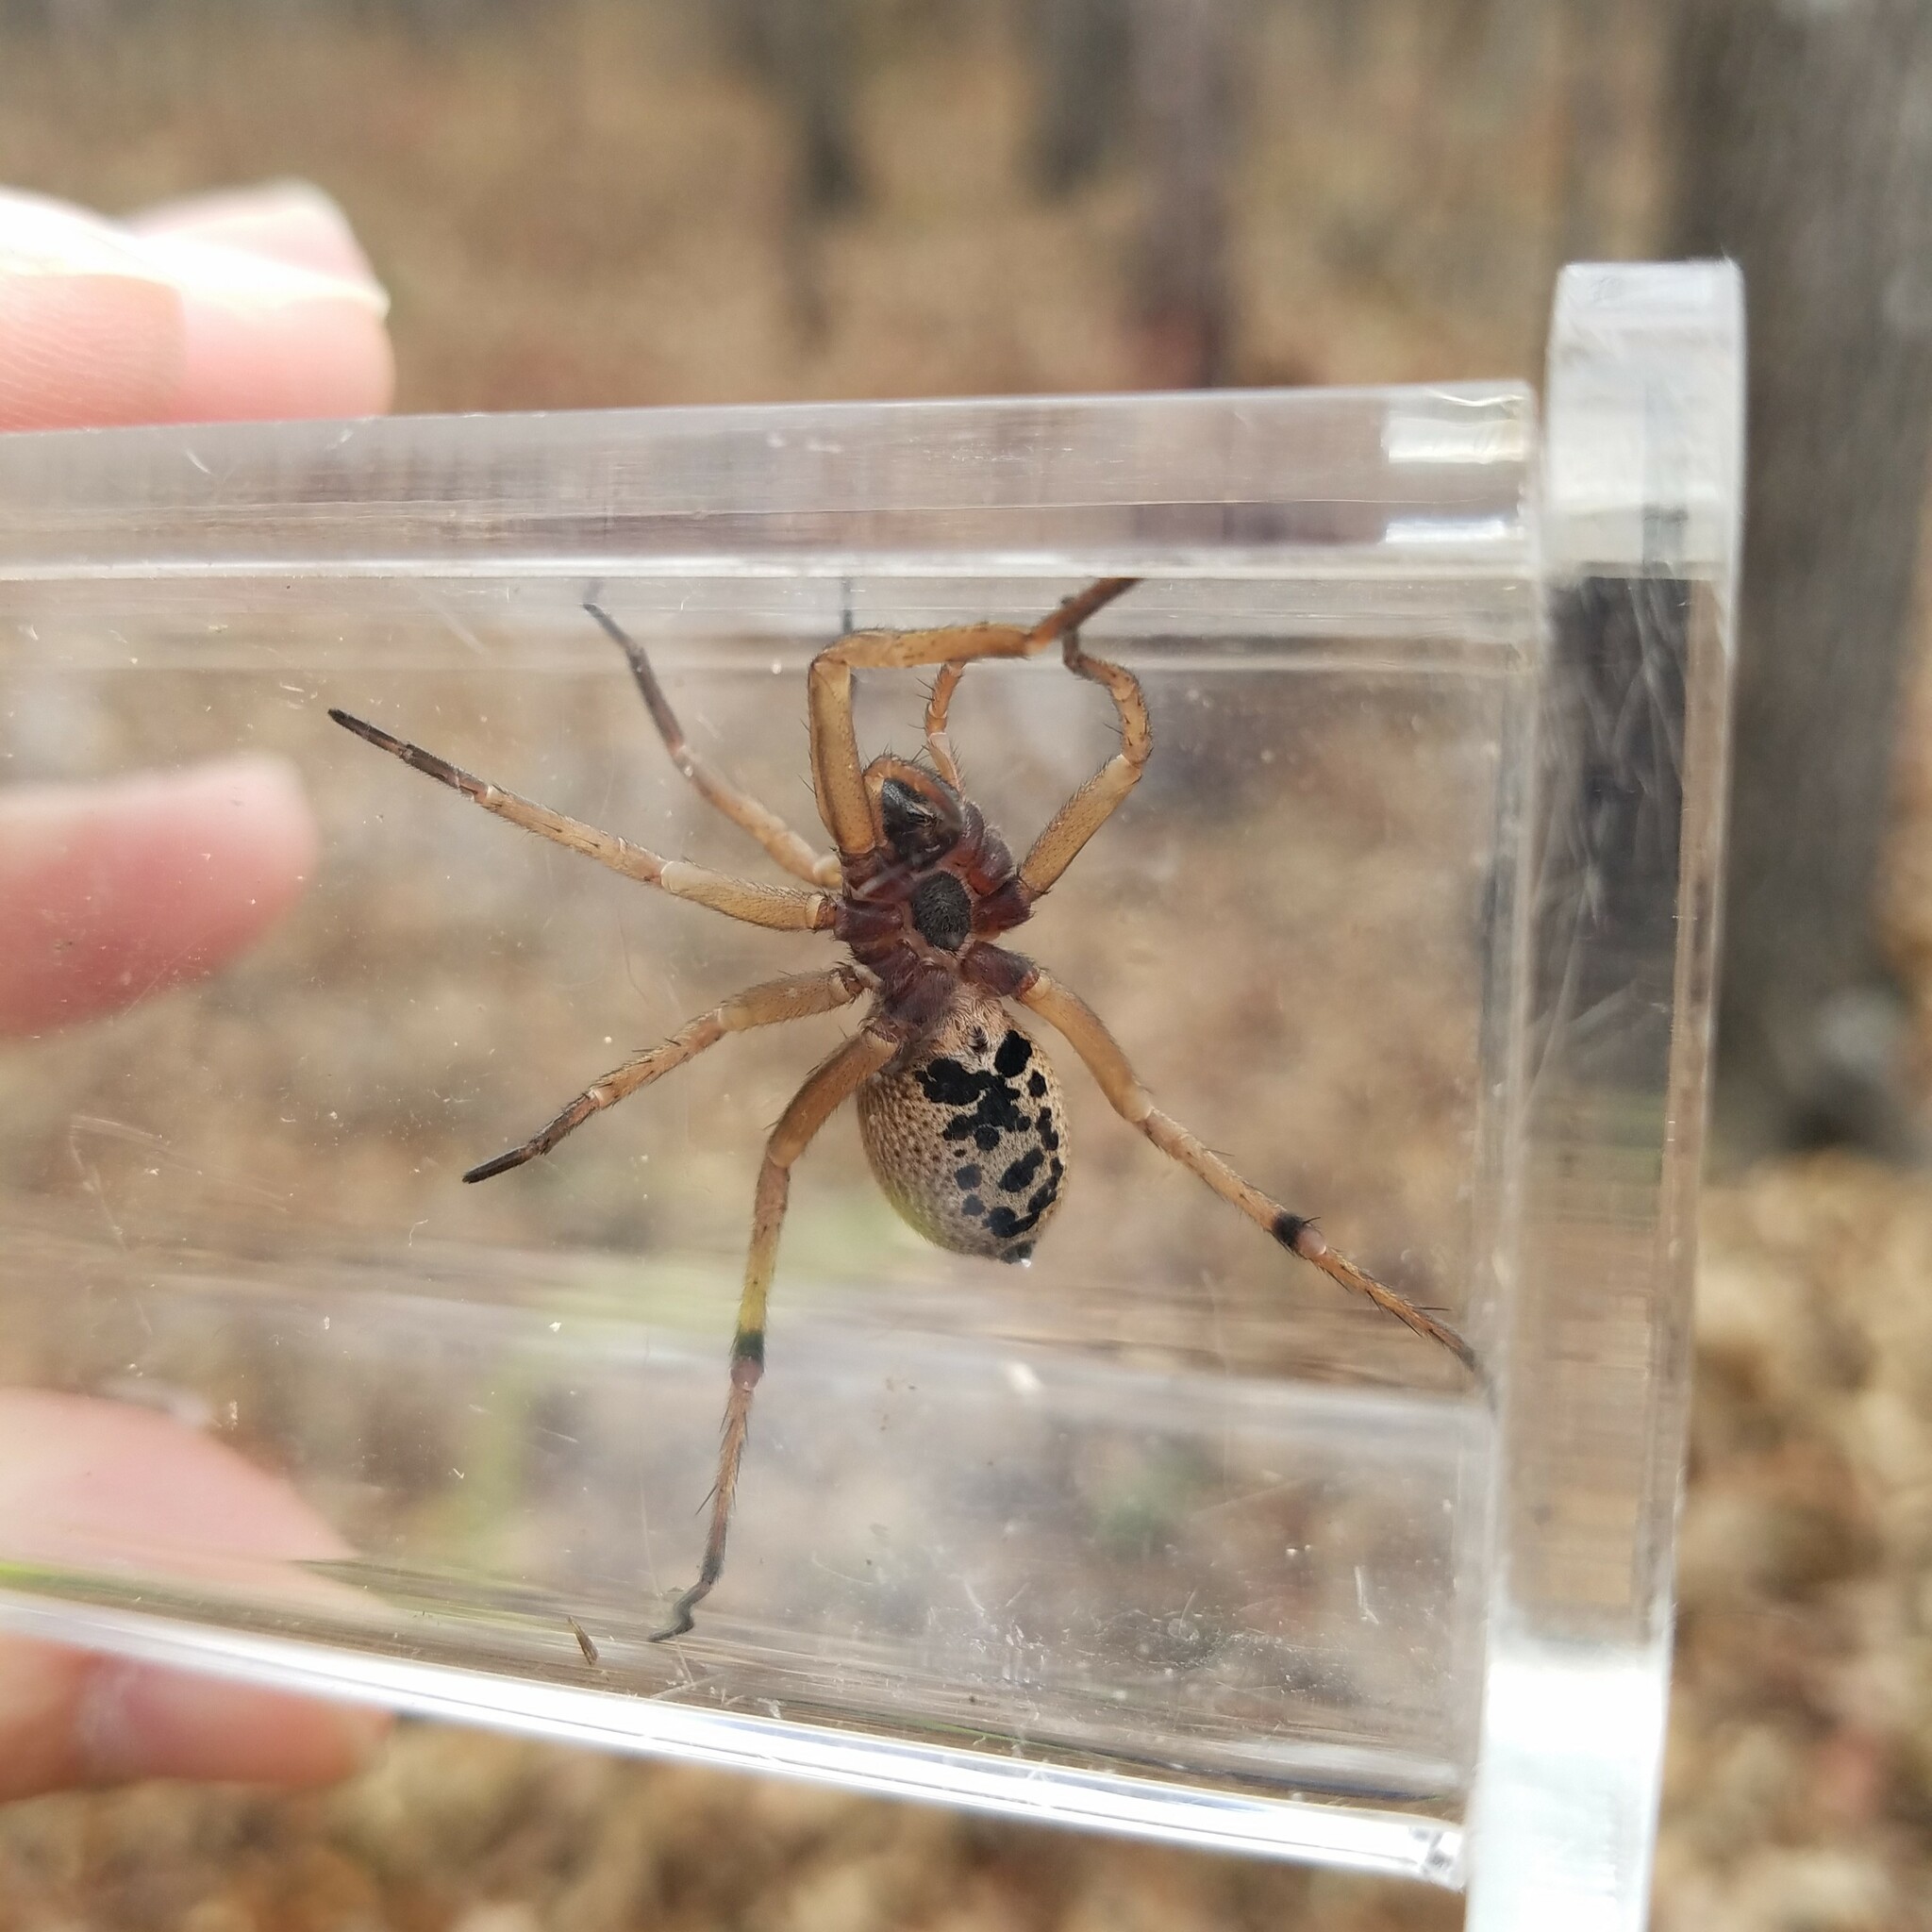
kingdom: Animalia
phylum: Arthropoda
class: Arachnida
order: Araneae
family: Lycosidae
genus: Rabidosa
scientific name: Rabidosa punctulata
